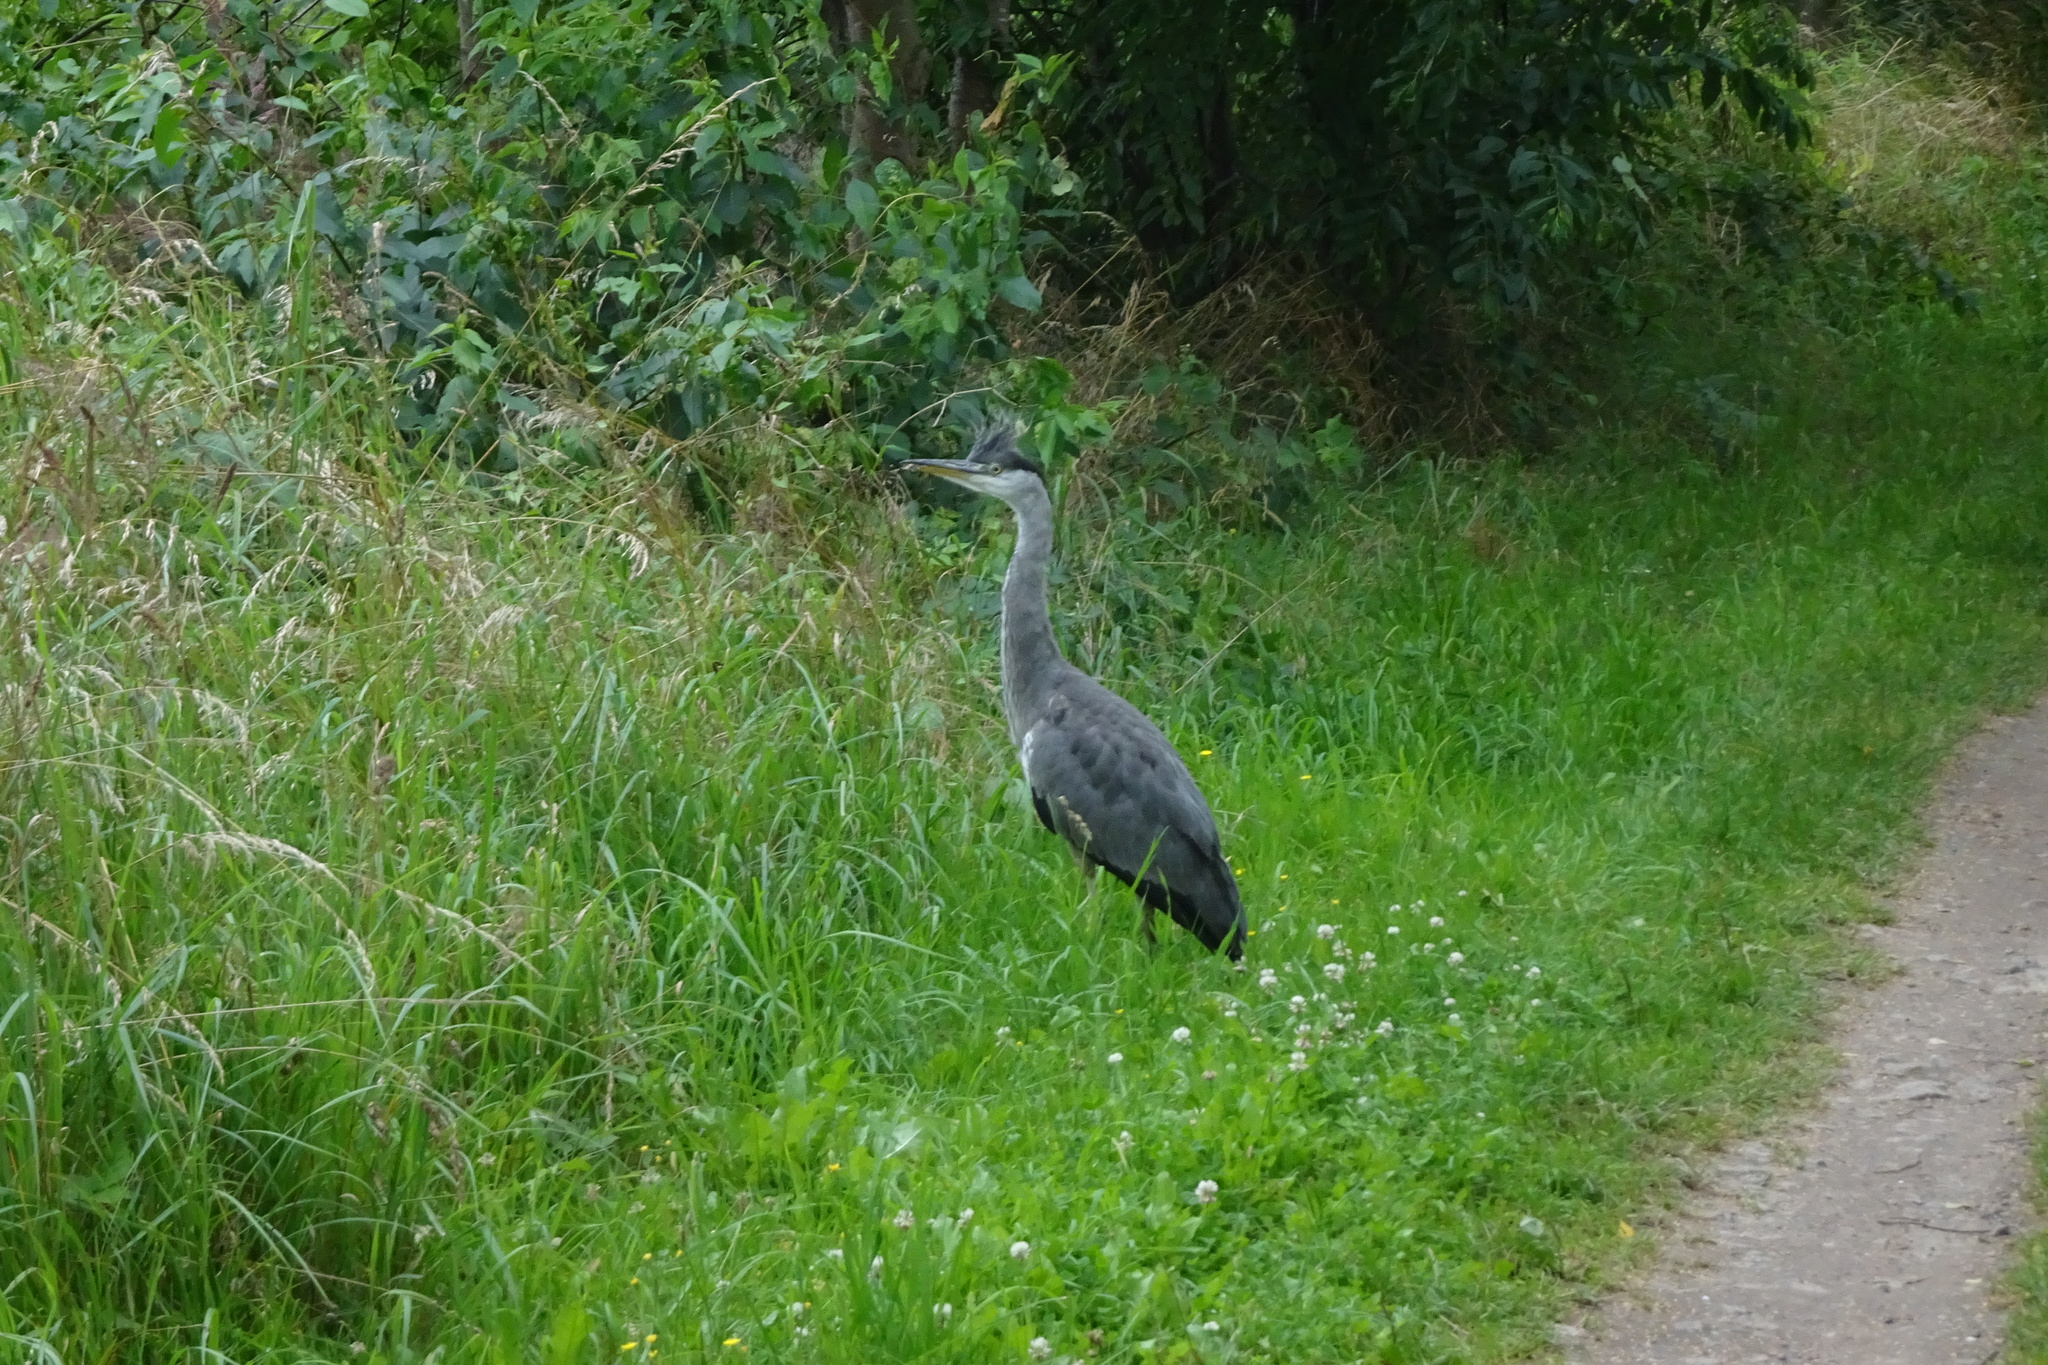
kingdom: Animalia
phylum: Chordata
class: Aves
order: Pelecaniformes
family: Ardeidae
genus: Ardea
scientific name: Ardea cinerea
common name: Grey heron
